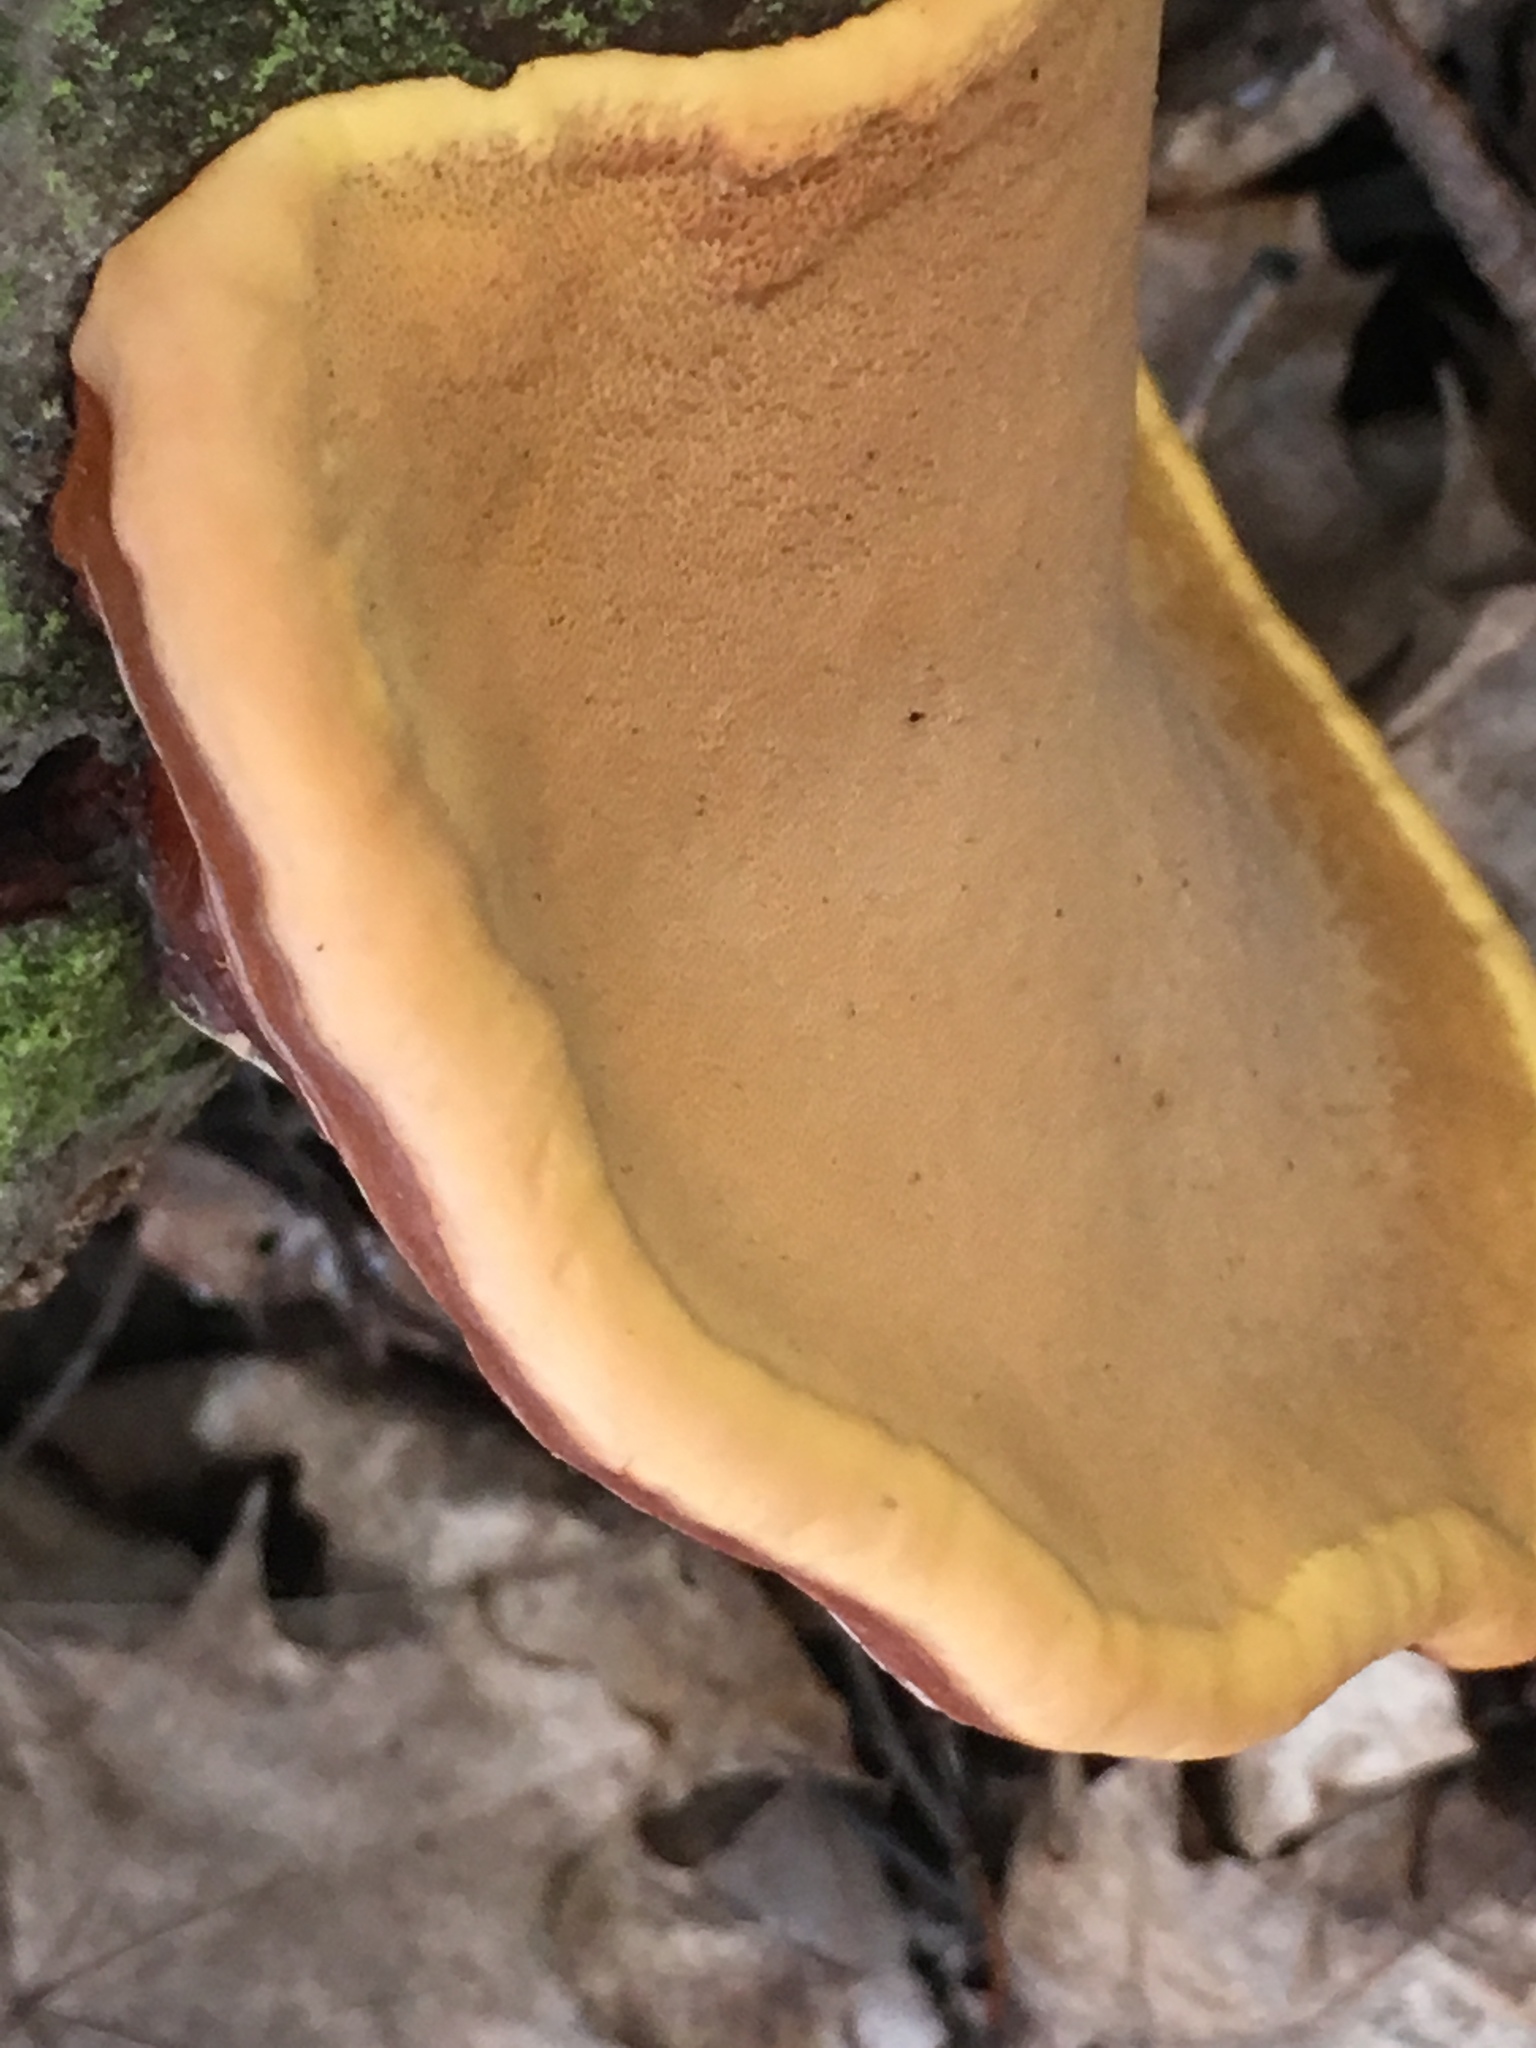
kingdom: Fungi
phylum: Basidiomycota
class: Agaricomycetes
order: Polyporales
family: Fomitopsidaceae
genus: Fomitopsis
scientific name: Fomitopsis pinicola
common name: Red-belted bracket
